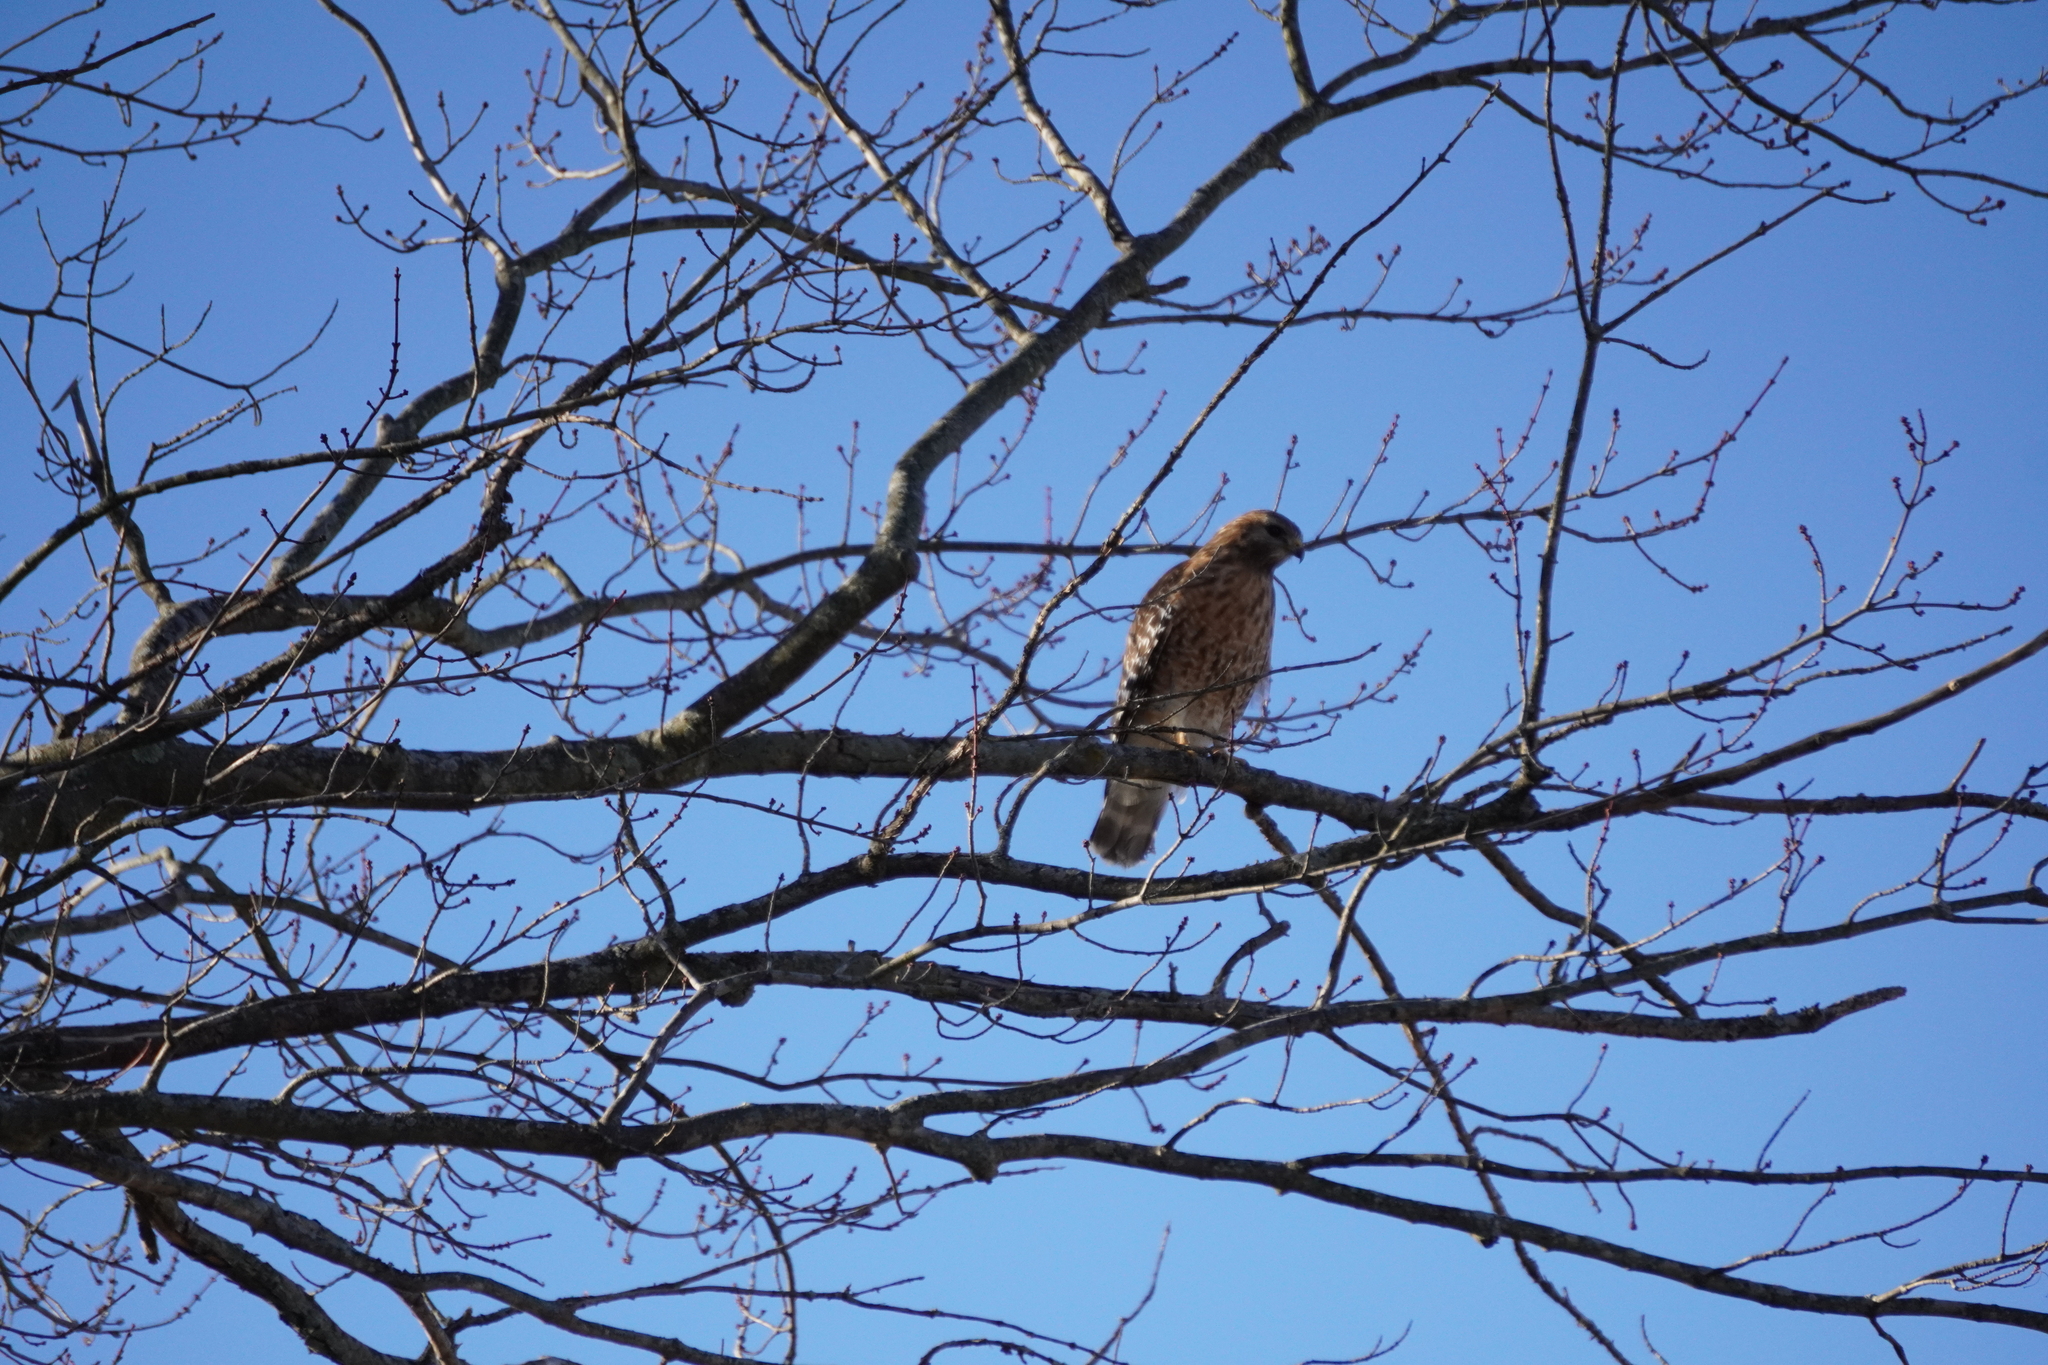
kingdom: Animalia
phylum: Chordata
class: Aves
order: Accipitriformes
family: Accipitridae
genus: Buteo
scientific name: Buteo lineatus
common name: Red-shouldered hawk
